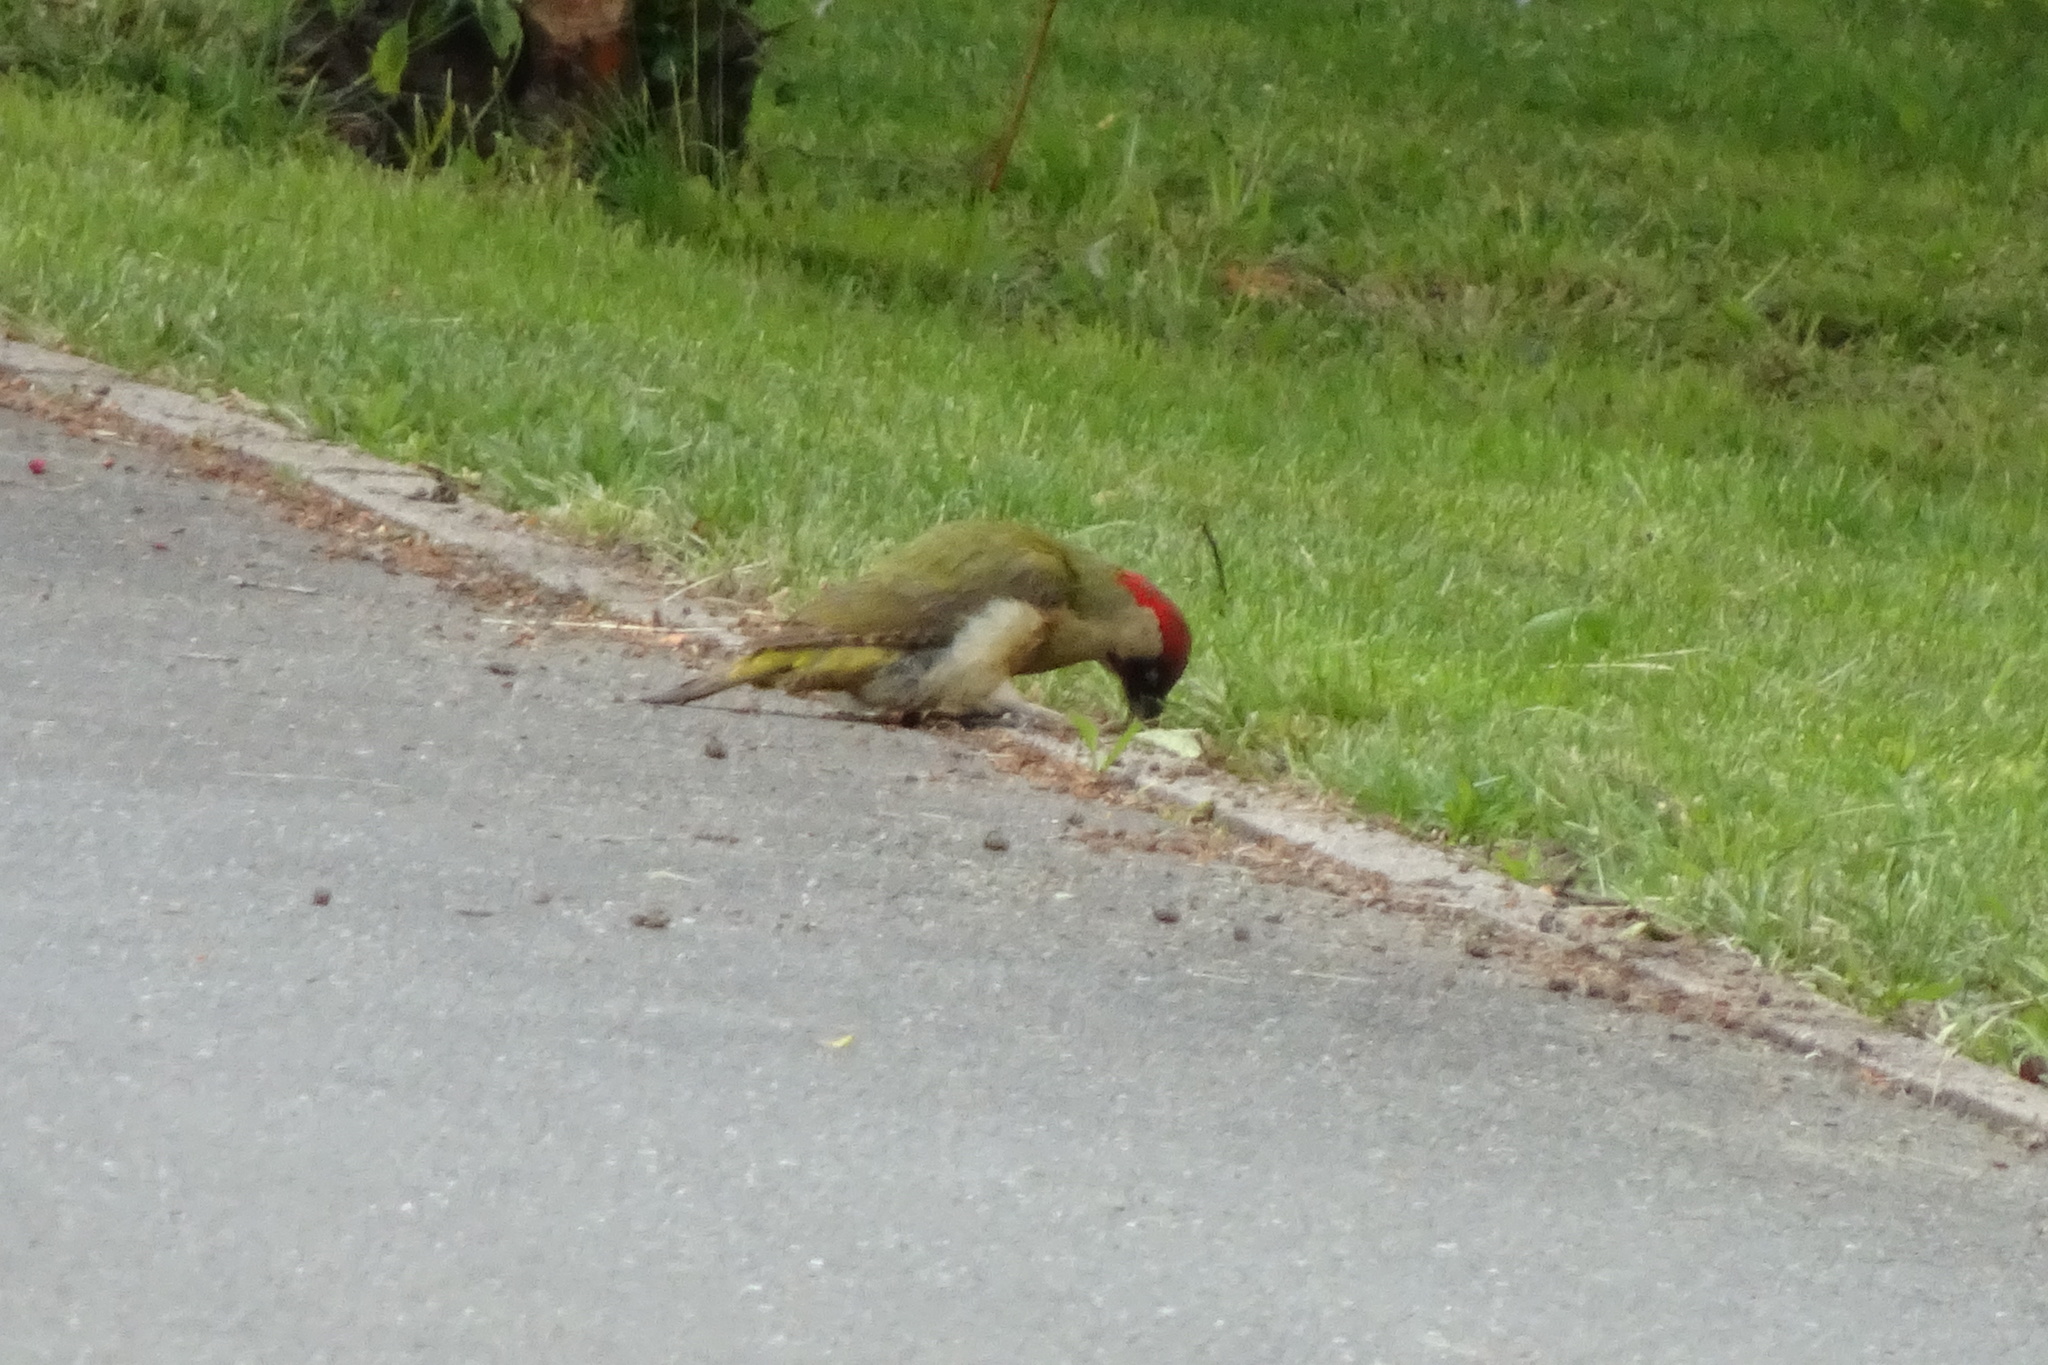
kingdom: Animalia
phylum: Chordata
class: Aves
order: Piciformes
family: Picidae
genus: Picus
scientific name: Picus viridis
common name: European green woodpecker
